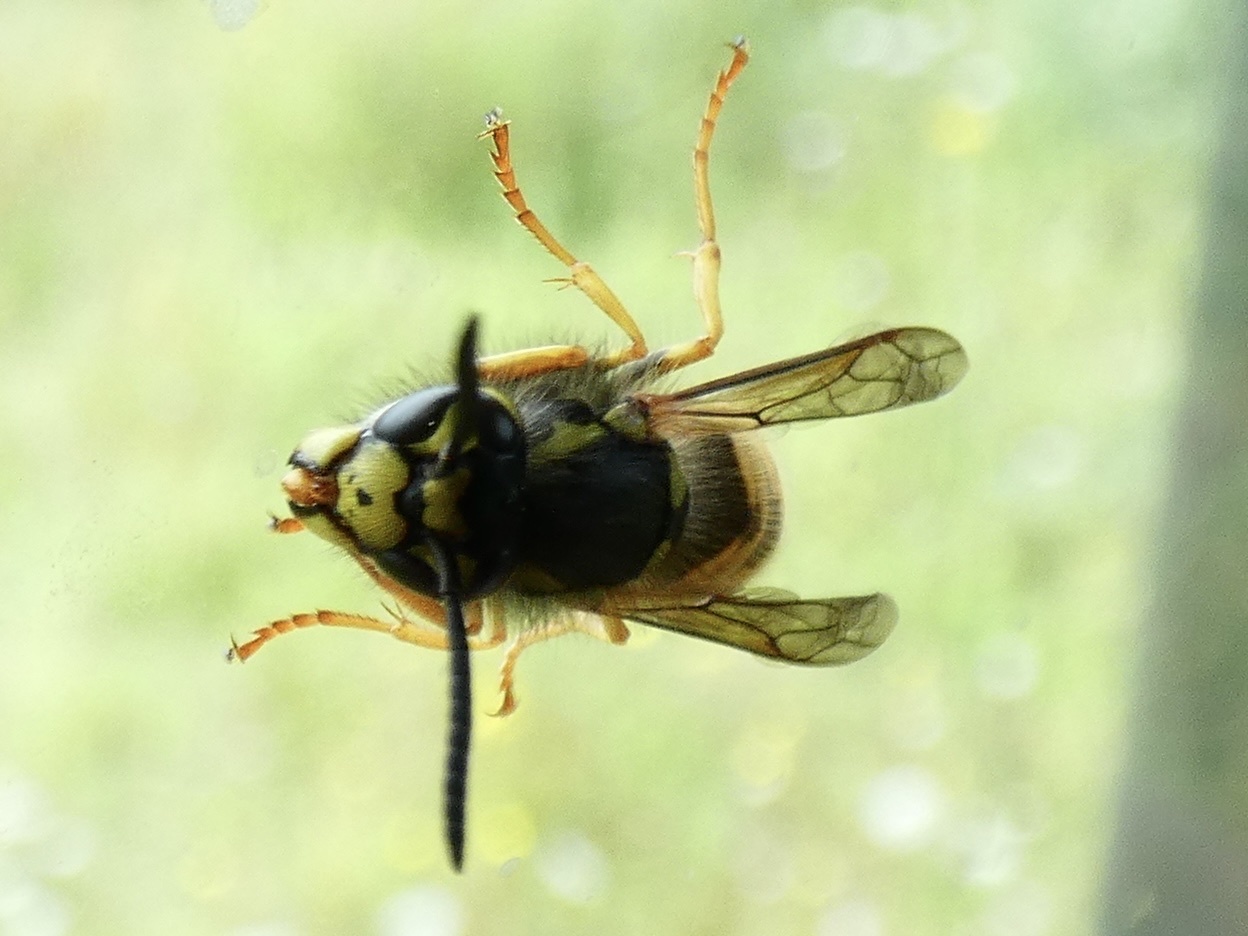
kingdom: Animalia
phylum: Arthropoda
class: Insecta
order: Hymenoptera
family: Vespidae
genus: Vespula
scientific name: Vespula germanica
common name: German wasp
